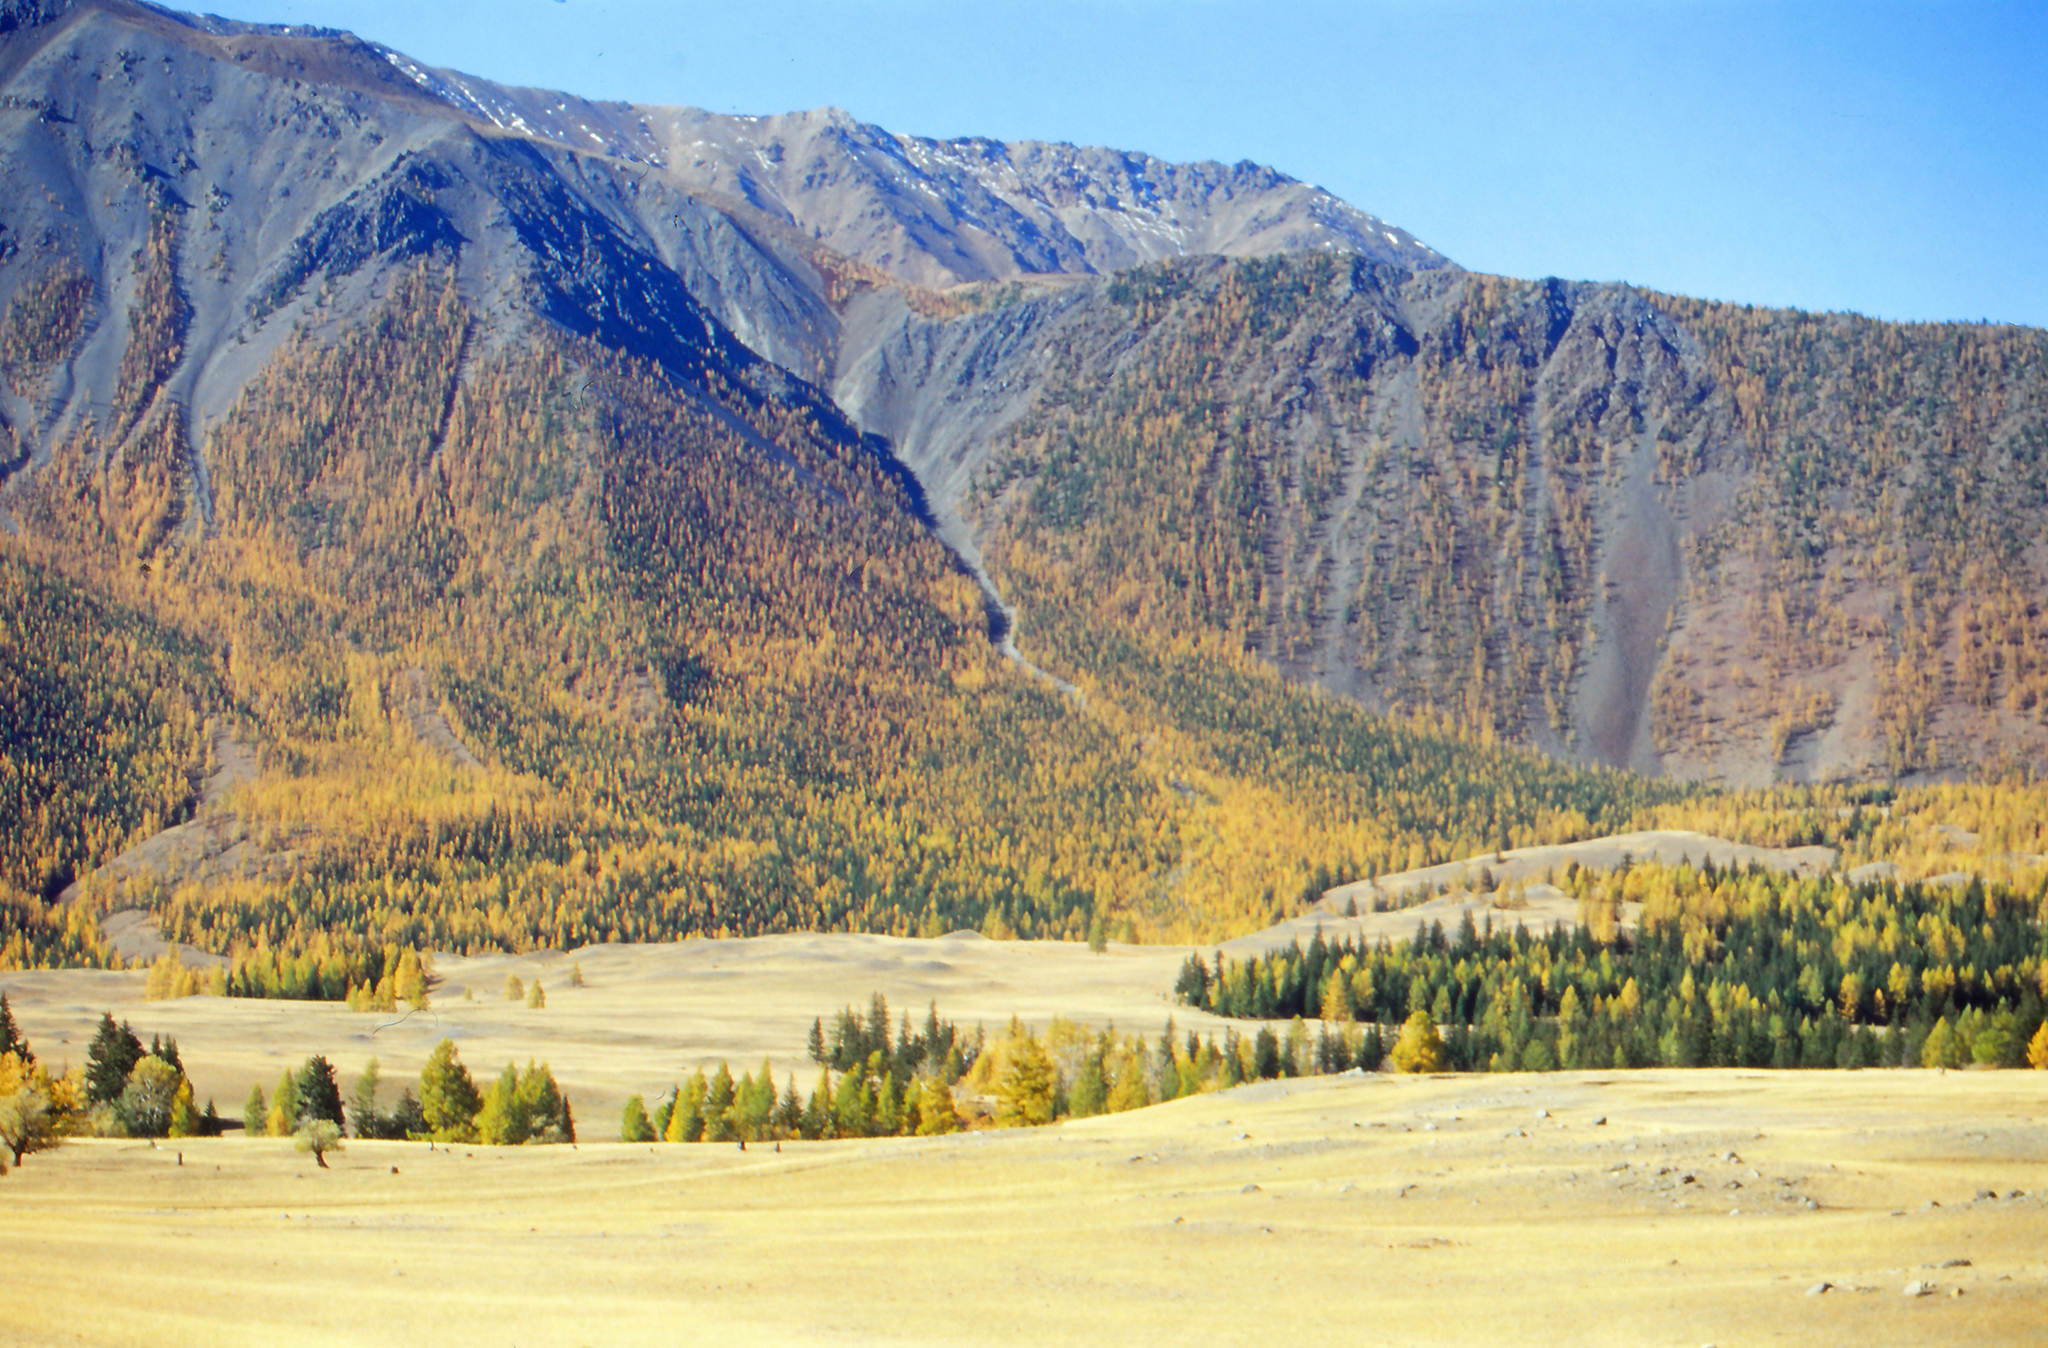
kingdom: Plantae
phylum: Tracheophyta
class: Pinopsida
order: Pinales
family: Pinaceae
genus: Larix
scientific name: Larix sibirica
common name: Siberian larch
